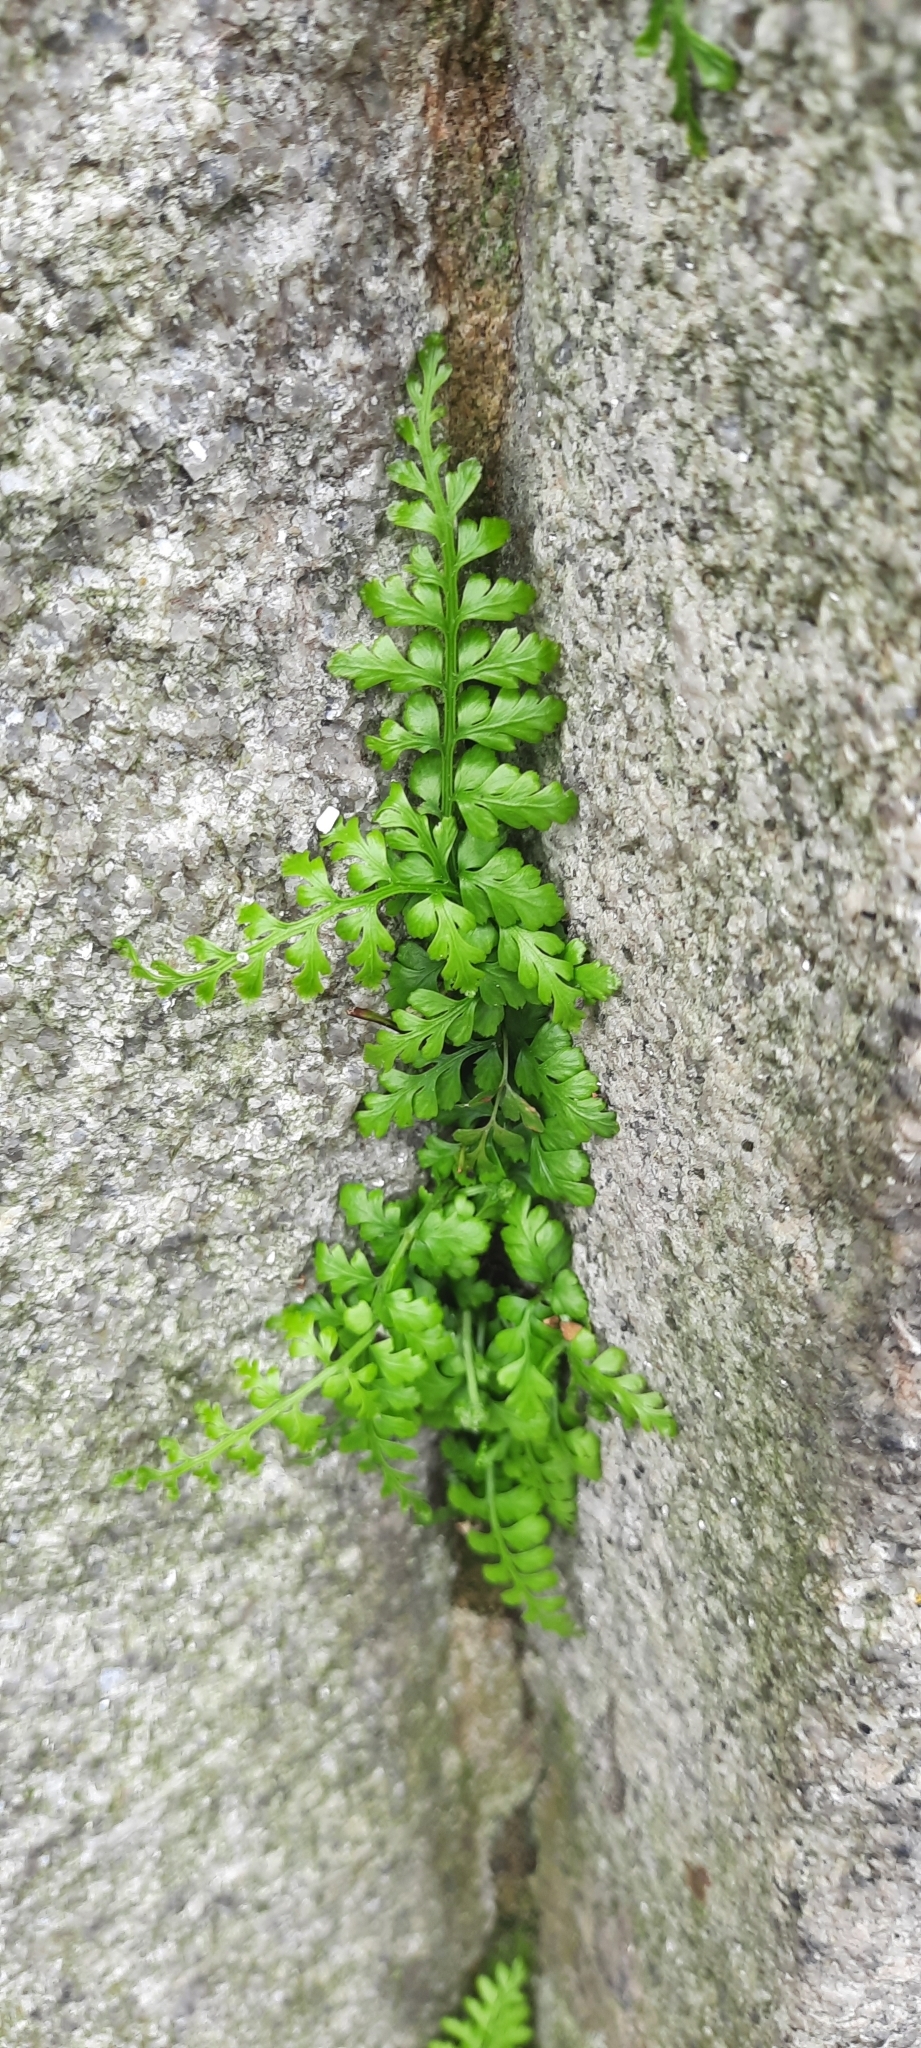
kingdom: Plantae
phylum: Tracheophyta
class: Polypodiopsida
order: Polypodiales
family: Aspleniaceae
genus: Asplenium
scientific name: Asplenium obovatum
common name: Lanceolate spleenwort
